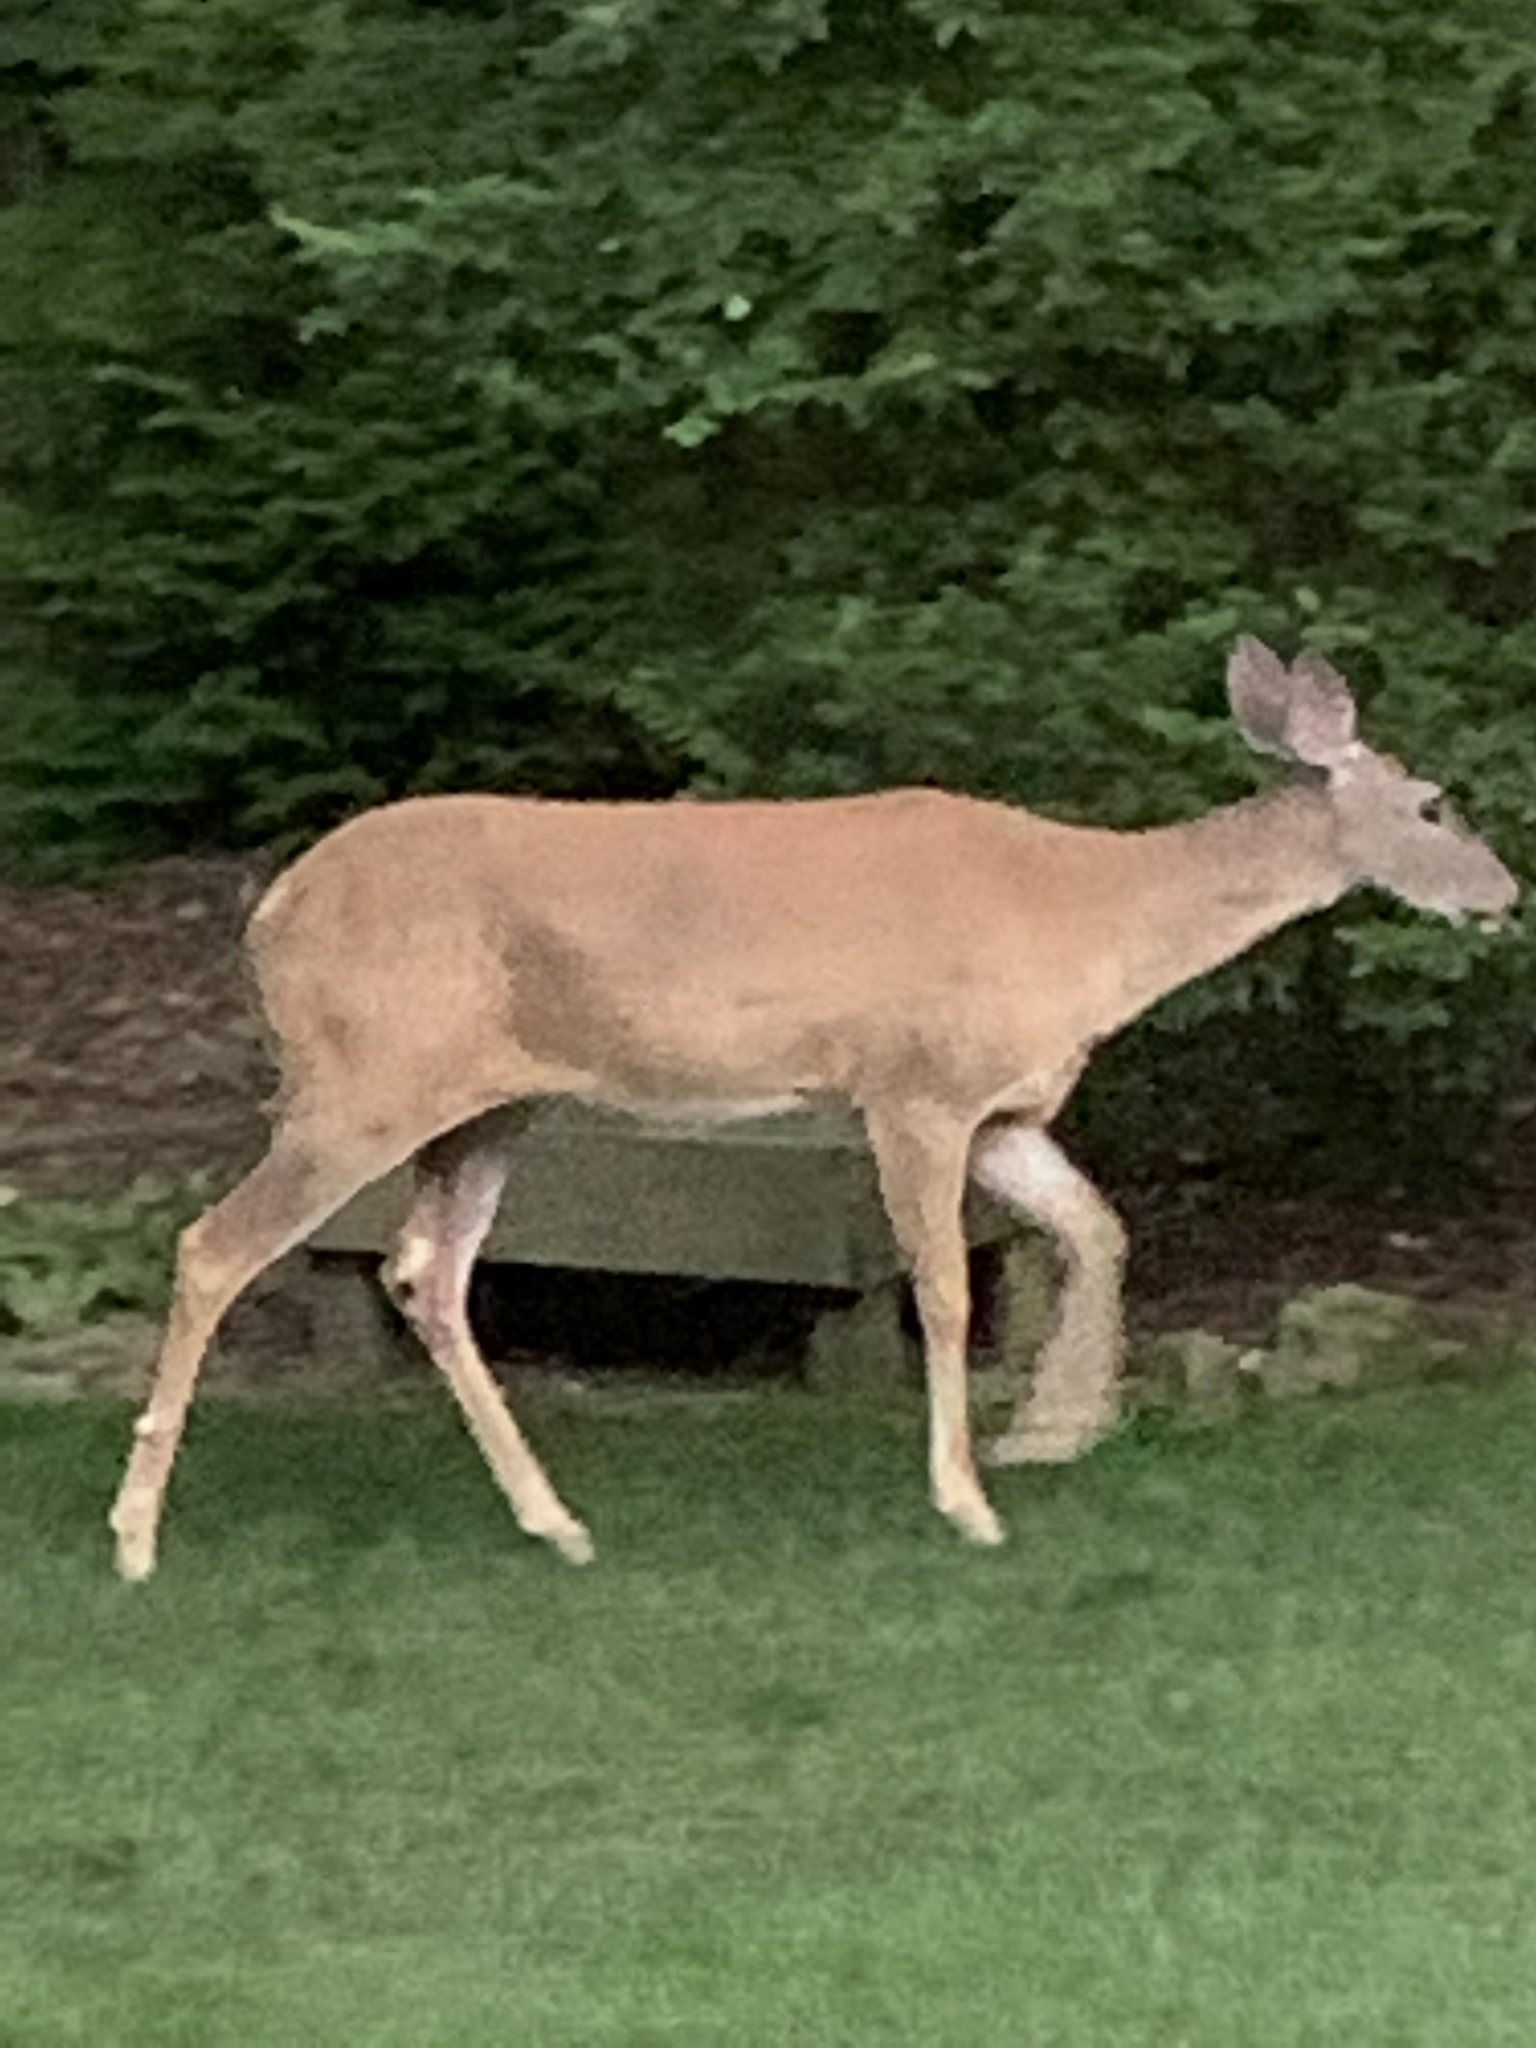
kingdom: Animalia
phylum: Chordata
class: Mammalia
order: Artiodactyla
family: Cervidae
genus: Odocoileus
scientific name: Odocoileus virginianus
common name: White-tailed deer
